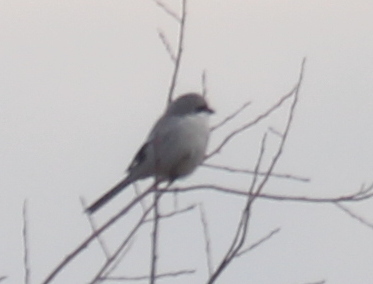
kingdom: Animalia
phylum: Chordata
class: Aves
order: Passeriformes
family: Laniidae
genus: Lanius
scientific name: Lanius excubitor
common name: Great grey shrike
